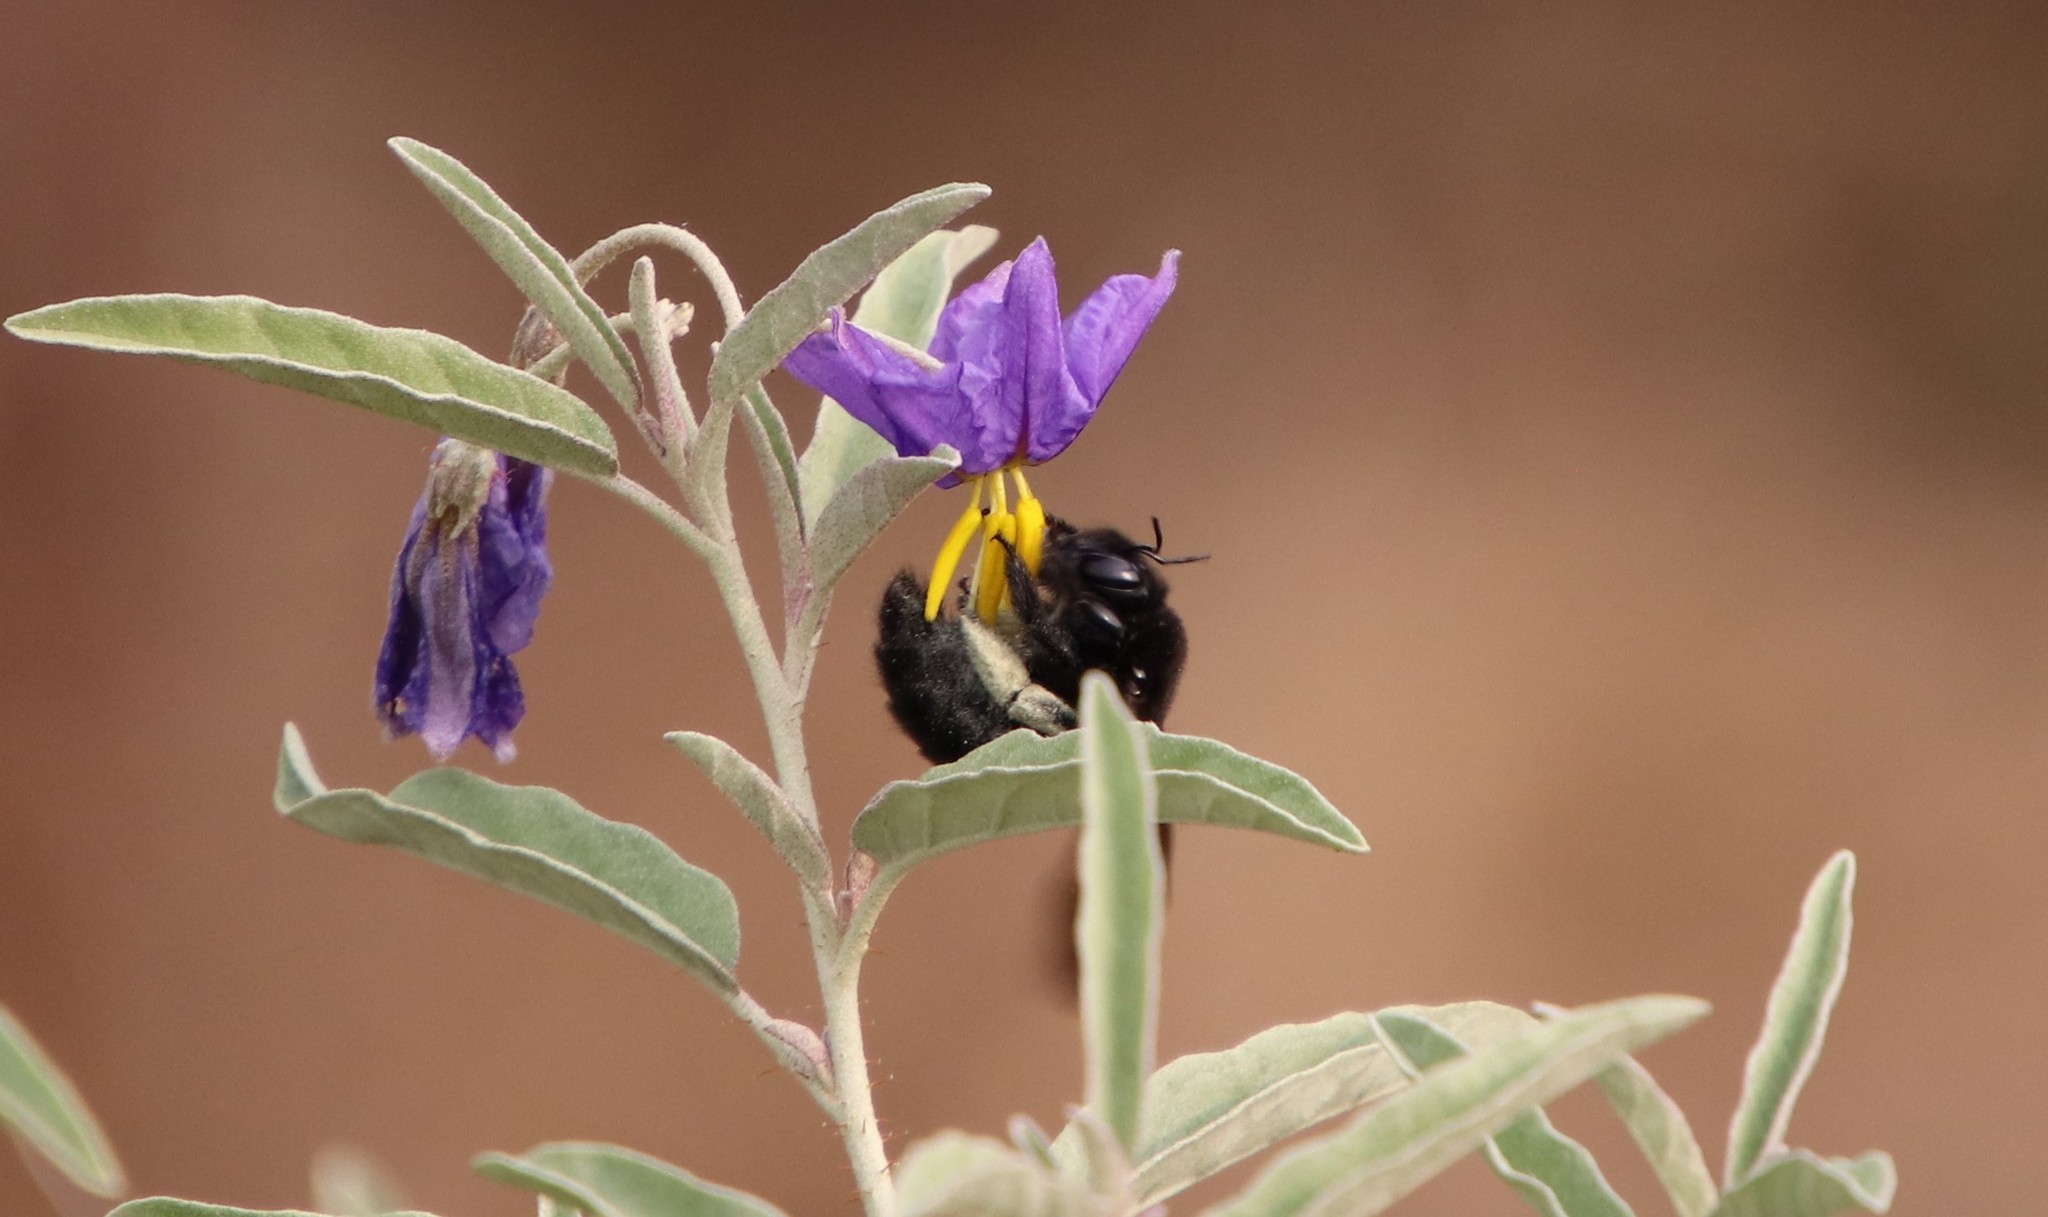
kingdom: Animalia
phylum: Arthropoda
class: Insecta
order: Hymenoptera
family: Apidae
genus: Xylocopa
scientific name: Xylocopa sonorina
